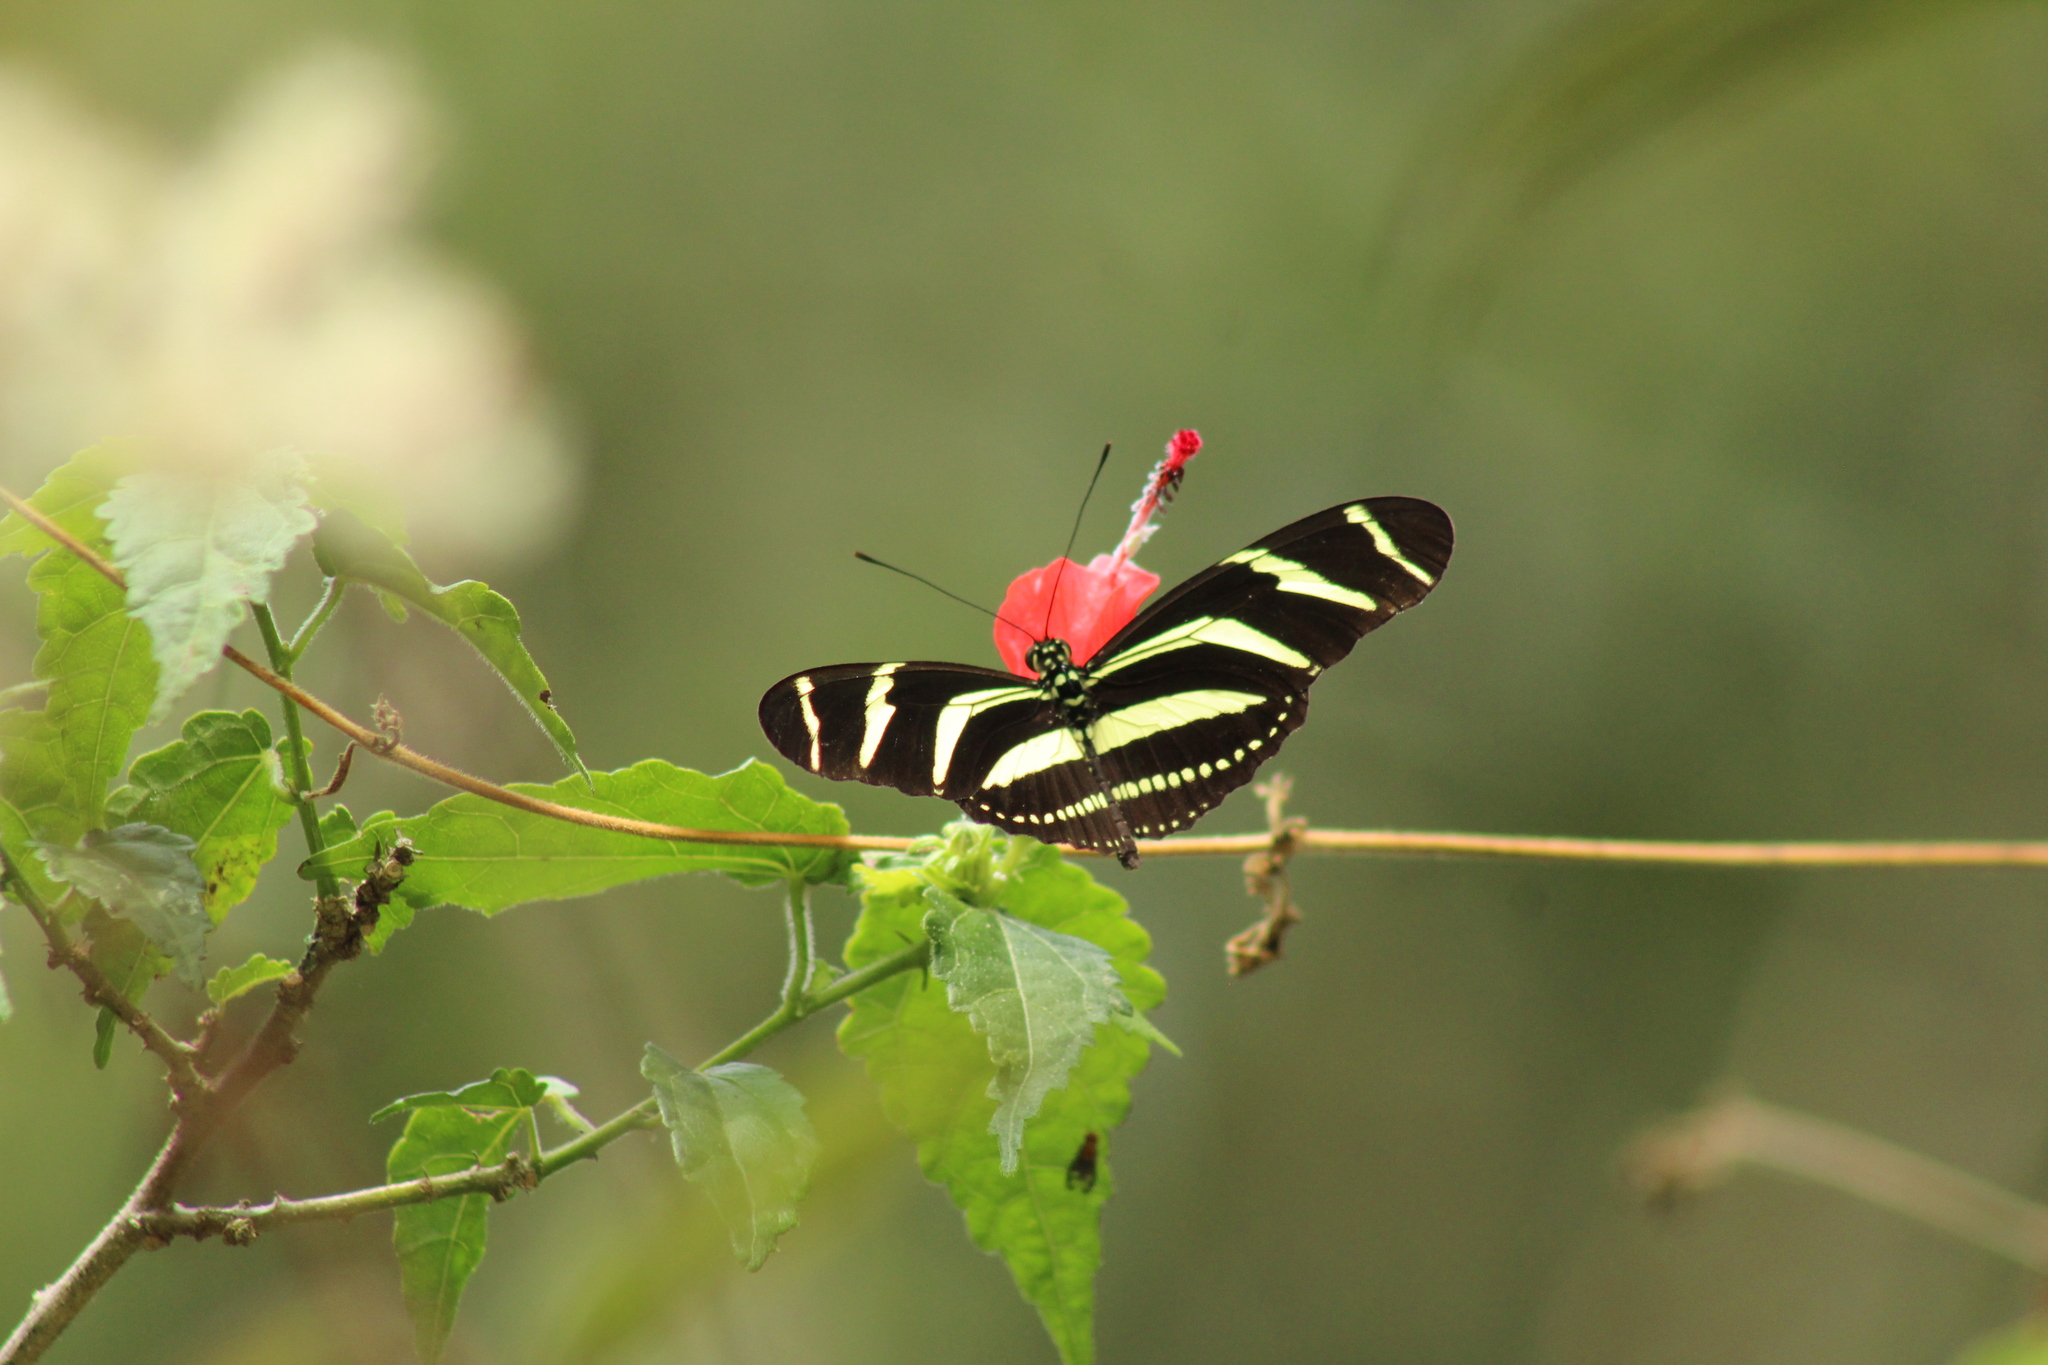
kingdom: Animalia
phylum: Arthropoda
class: Insecta
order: Lepidoptera
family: Nymphalidae
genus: Heliconius
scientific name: Heliconius charithonia
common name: Zebra long wing
